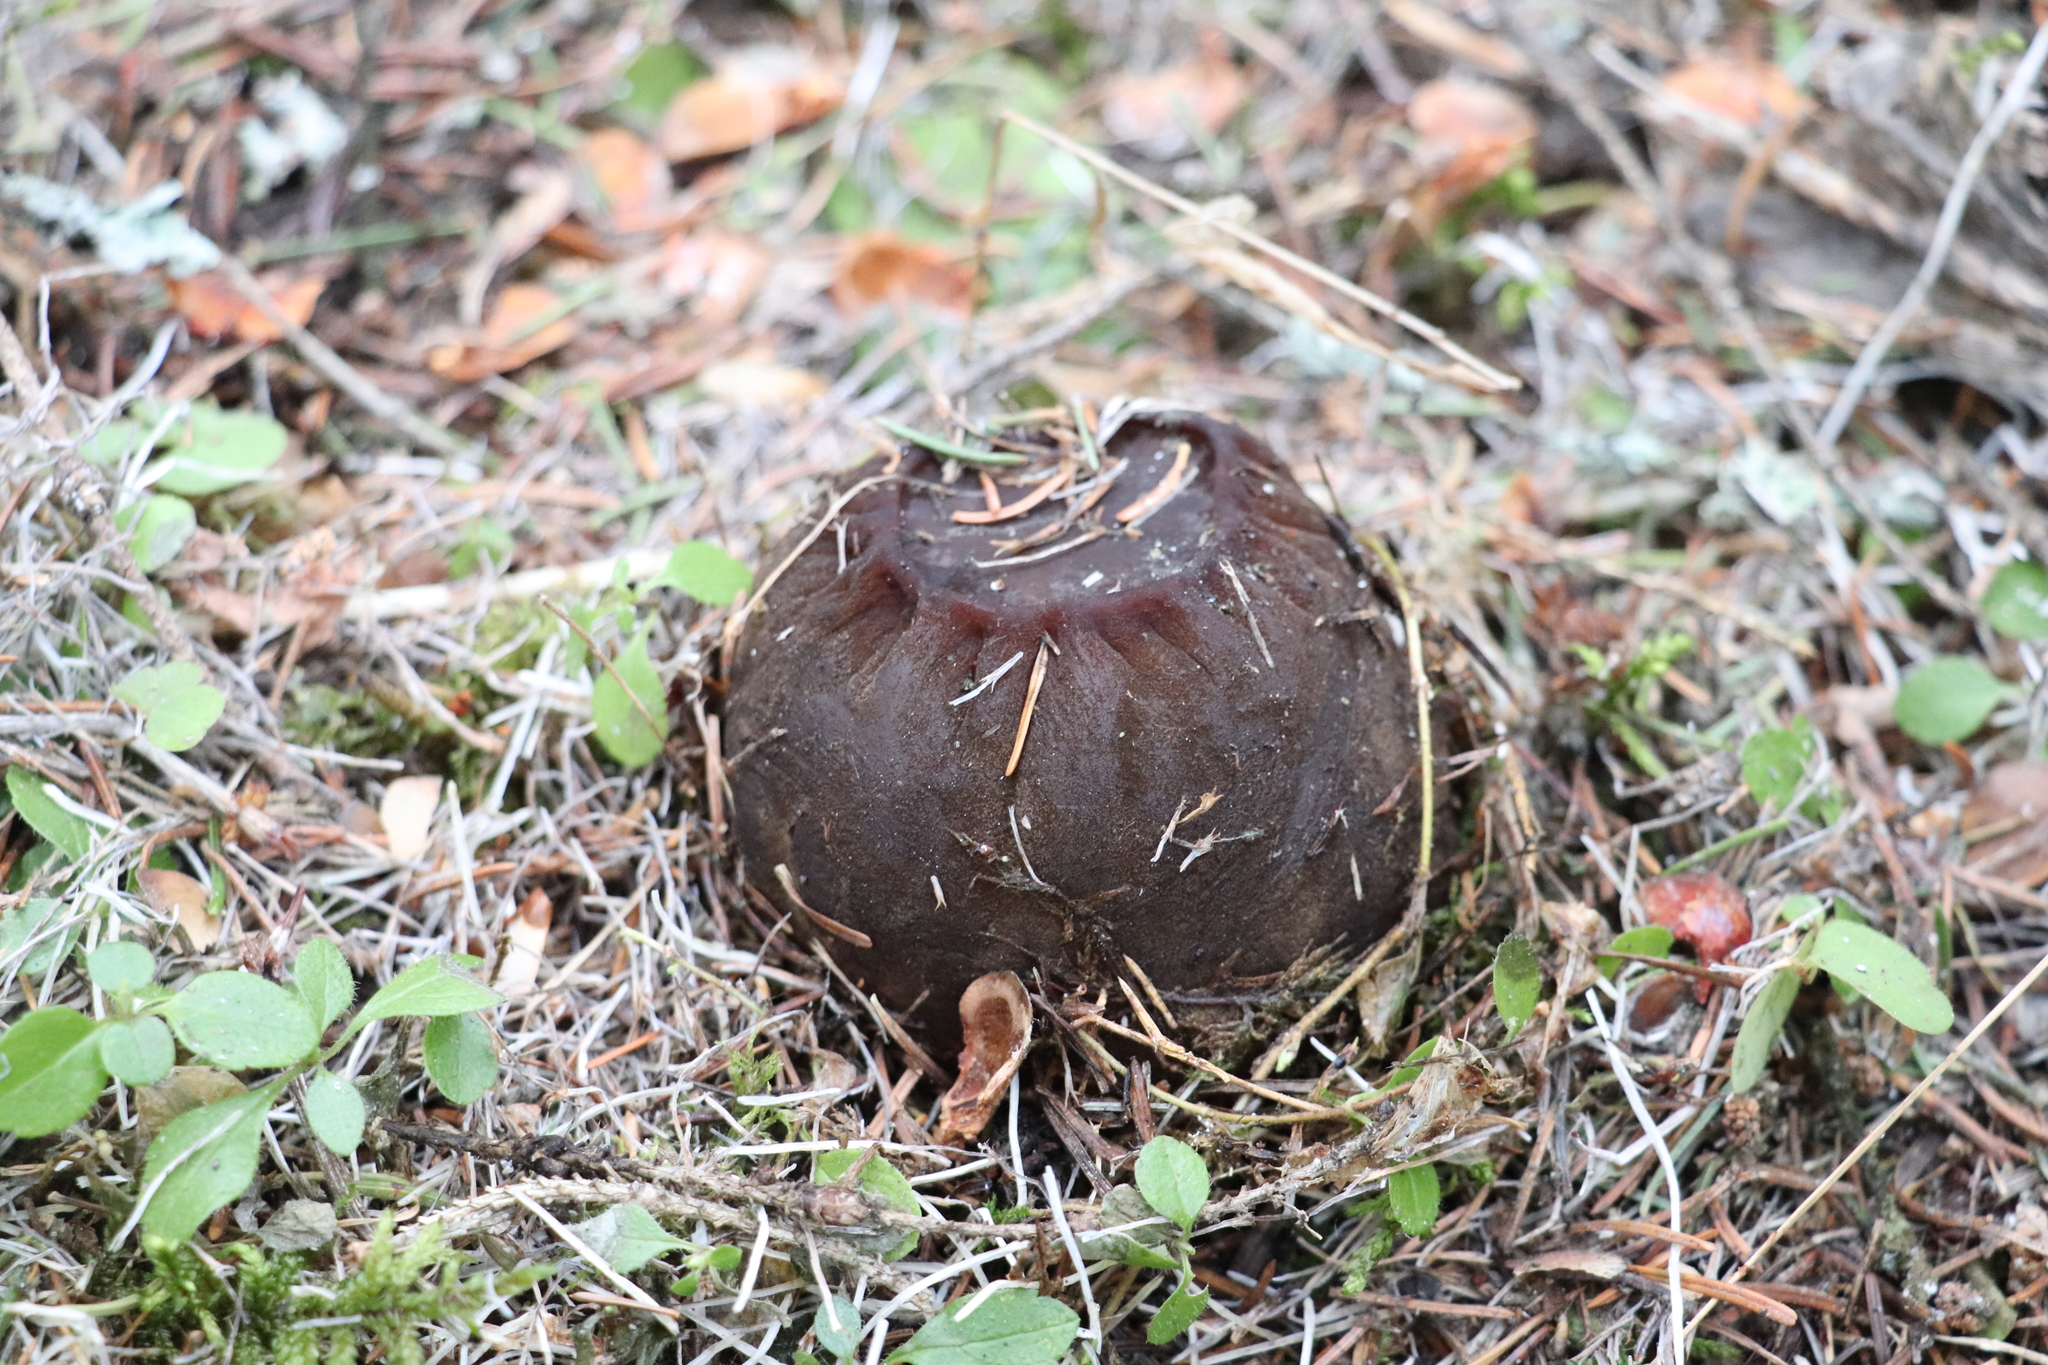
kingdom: Fungi
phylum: Ascomycota
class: Pezizomycetes
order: Pezizales
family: Sarcosomataceae
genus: Sarcosoma
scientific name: Sarcosoma globosum
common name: Charred-pancake cup
